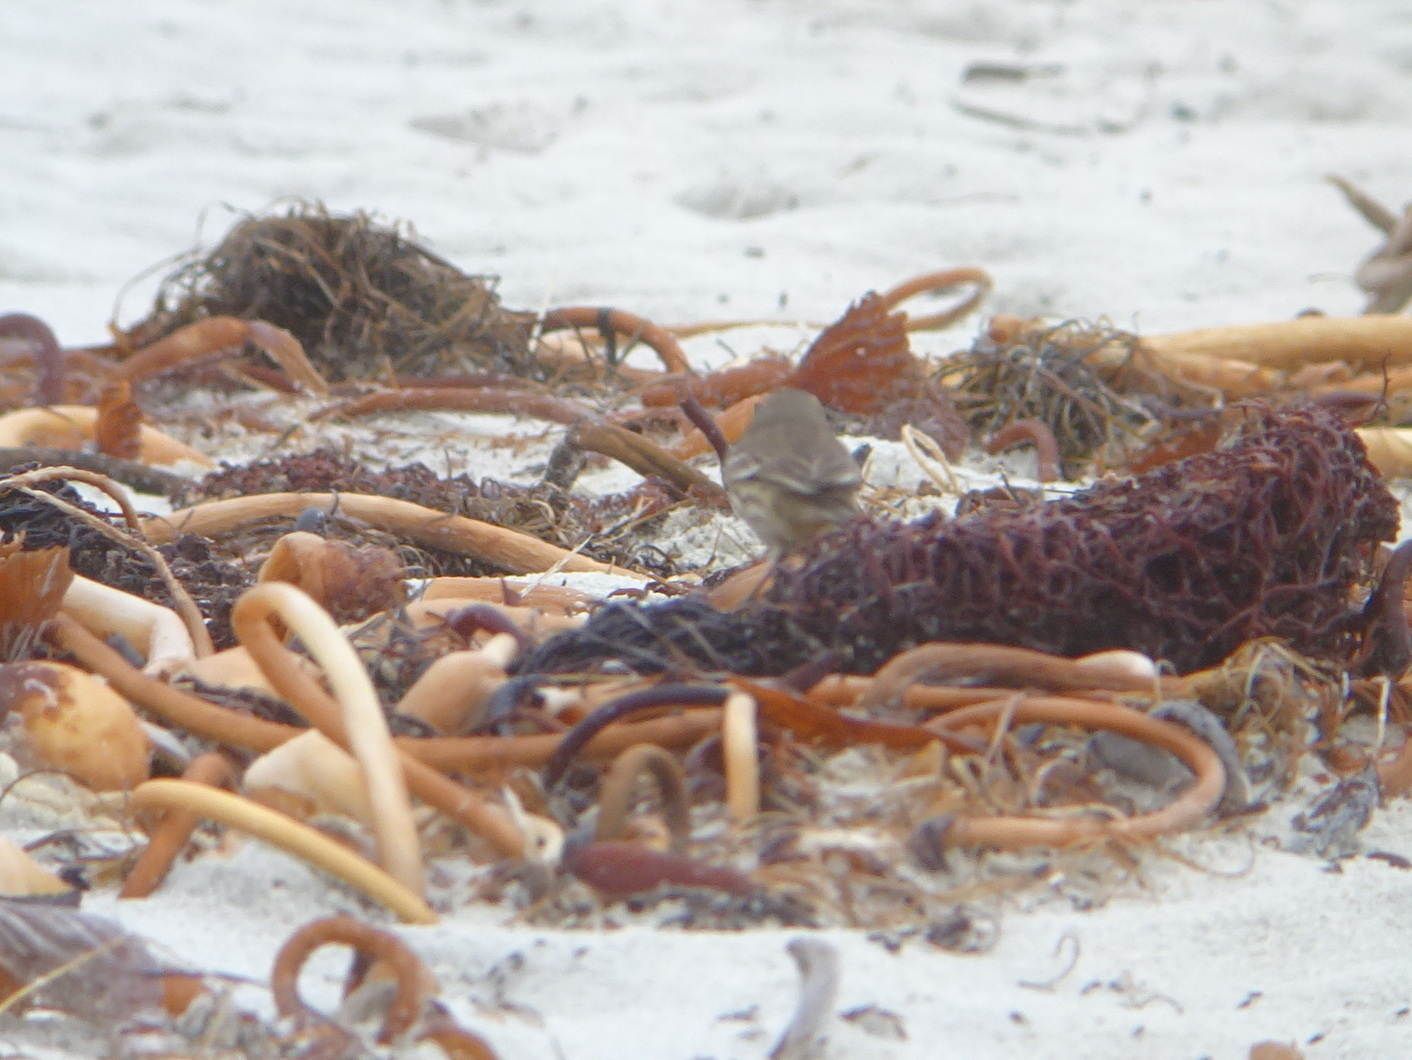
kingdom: Animalia
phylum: Chordata
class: Aves
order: Passeriformes
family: Motacillidae
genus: Anthus
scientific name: Anthus rubescens
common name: Buff-bellied pipit
